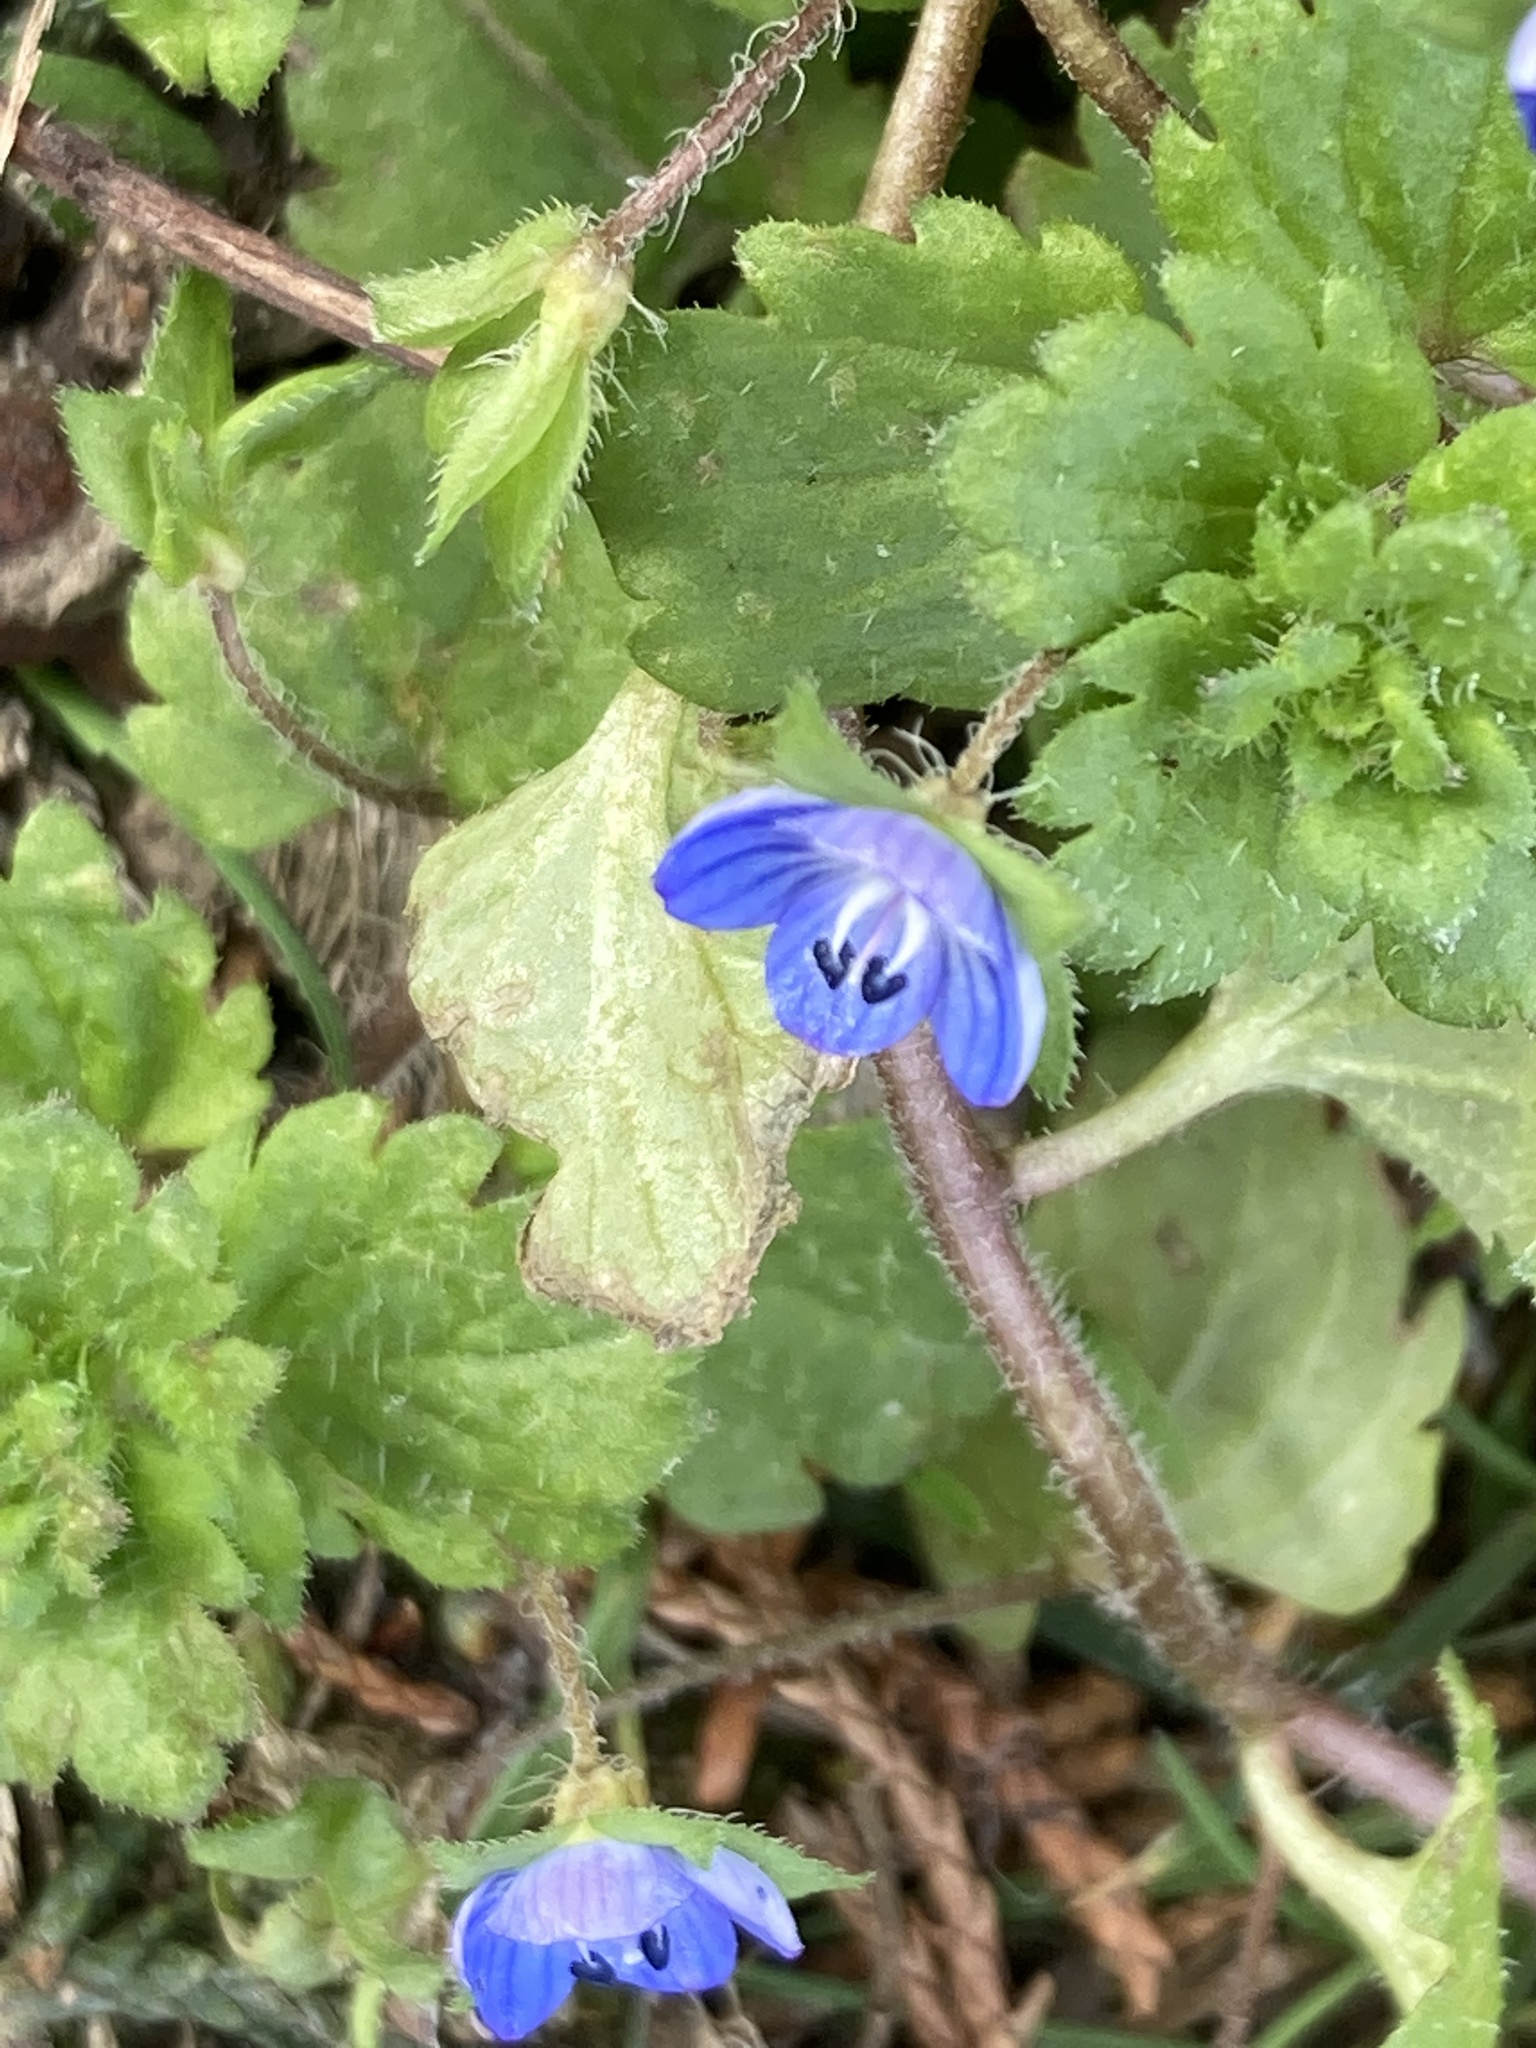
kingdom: Plantae
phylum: Tracheophyta
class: Magnoliopsida
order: Lamiales
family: Plantaginaceae
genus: Veronica
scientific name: Veronica persica
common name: Common field-speedwell
